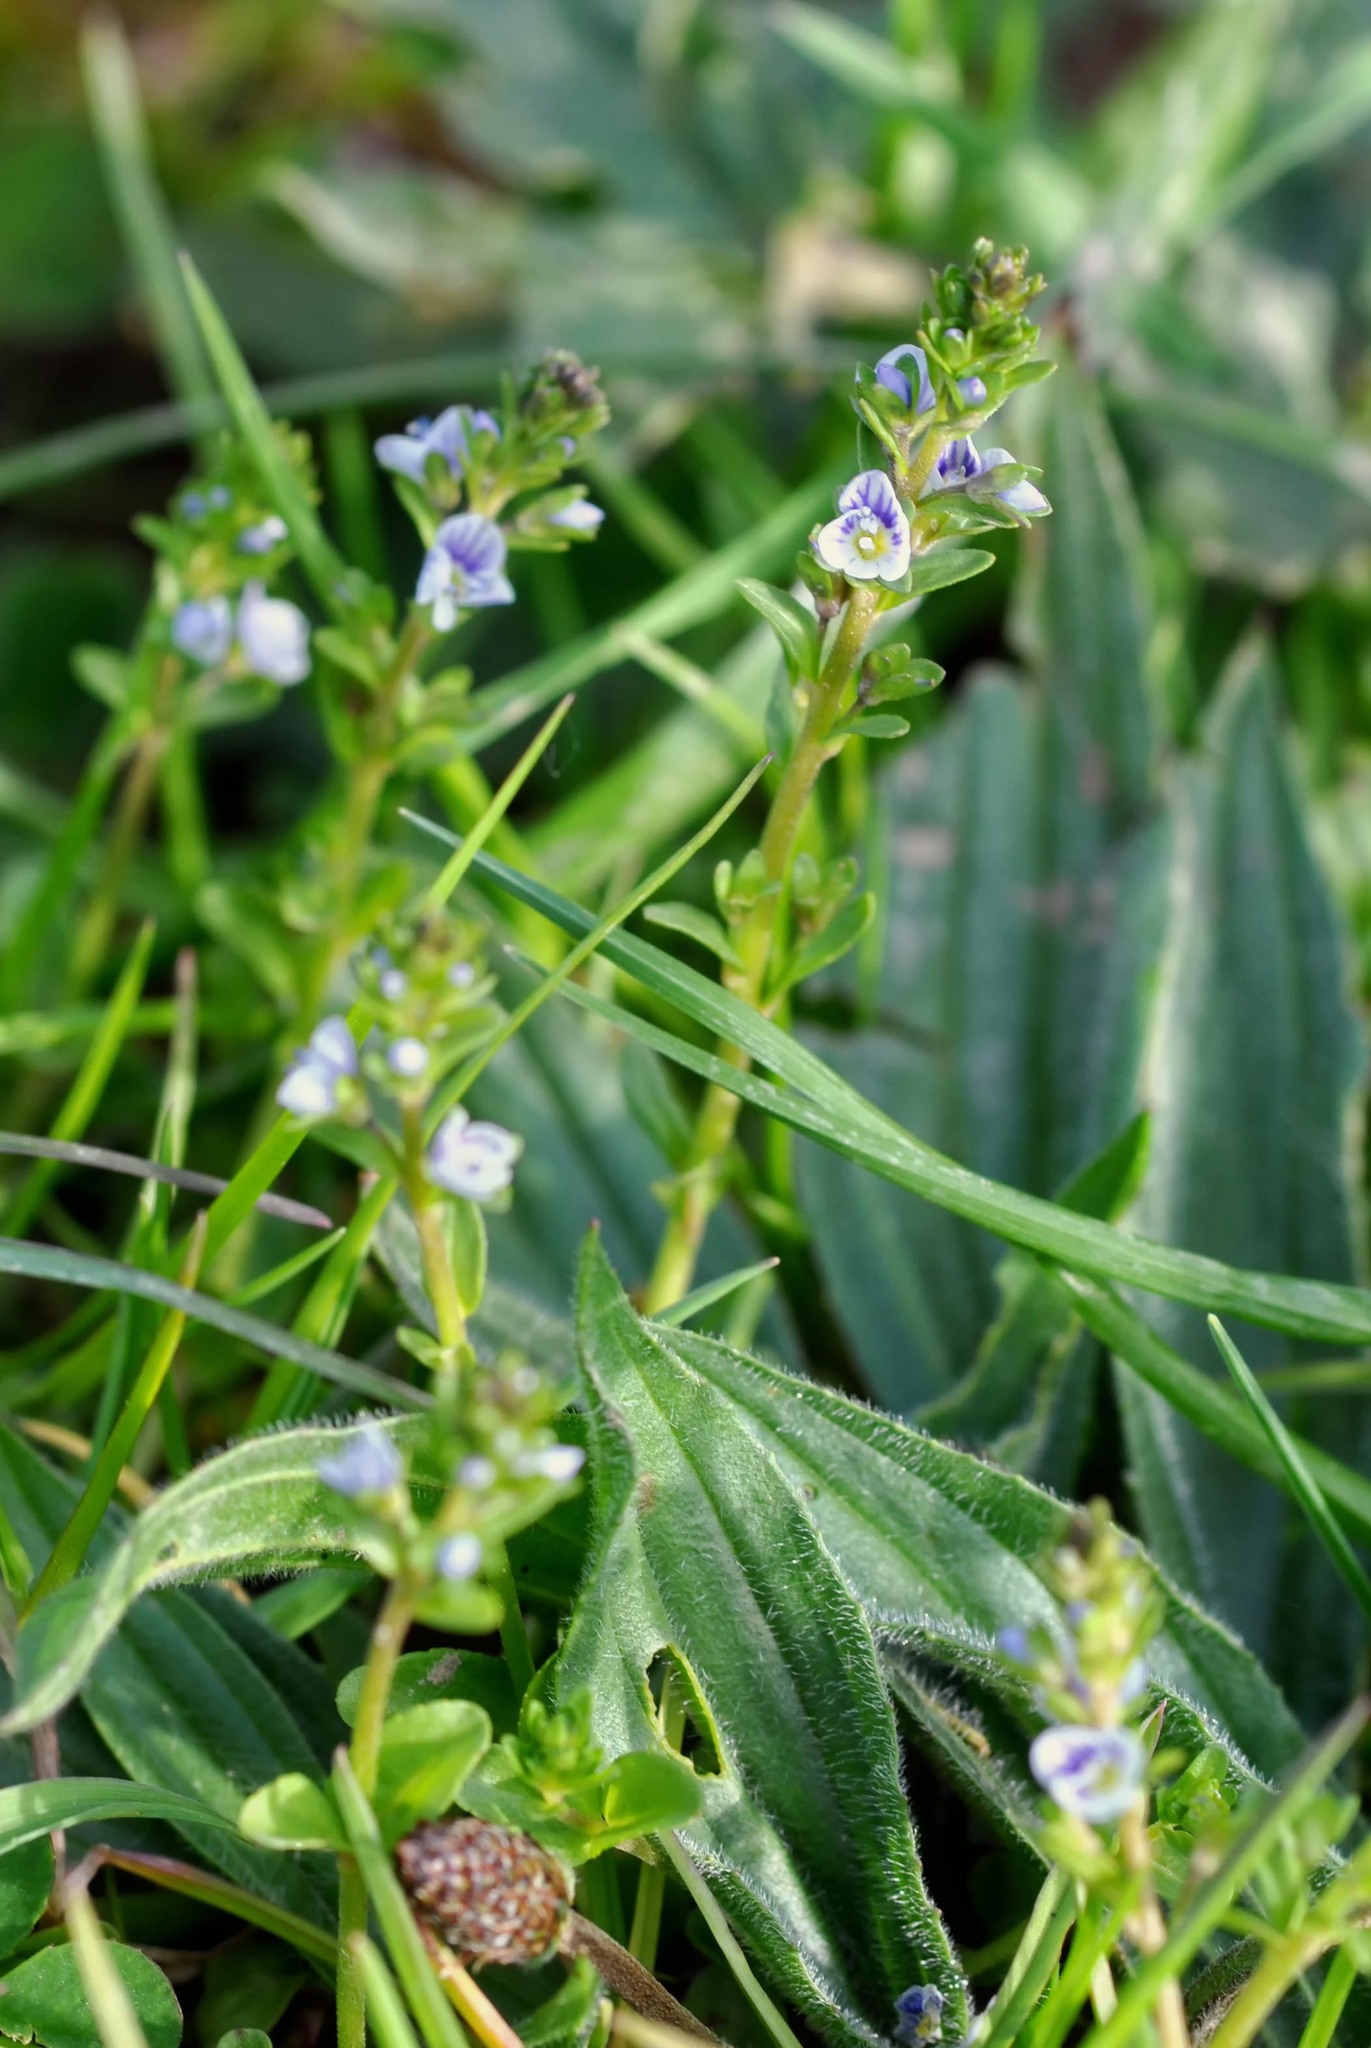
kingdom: Plantae
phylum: Tracheophyta
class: Magnoliopsida
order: Lamiales
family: Plantaginaceae
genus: Veronica
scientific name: Veronica serpyllifolia
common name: Thyme-leaved speedwell
